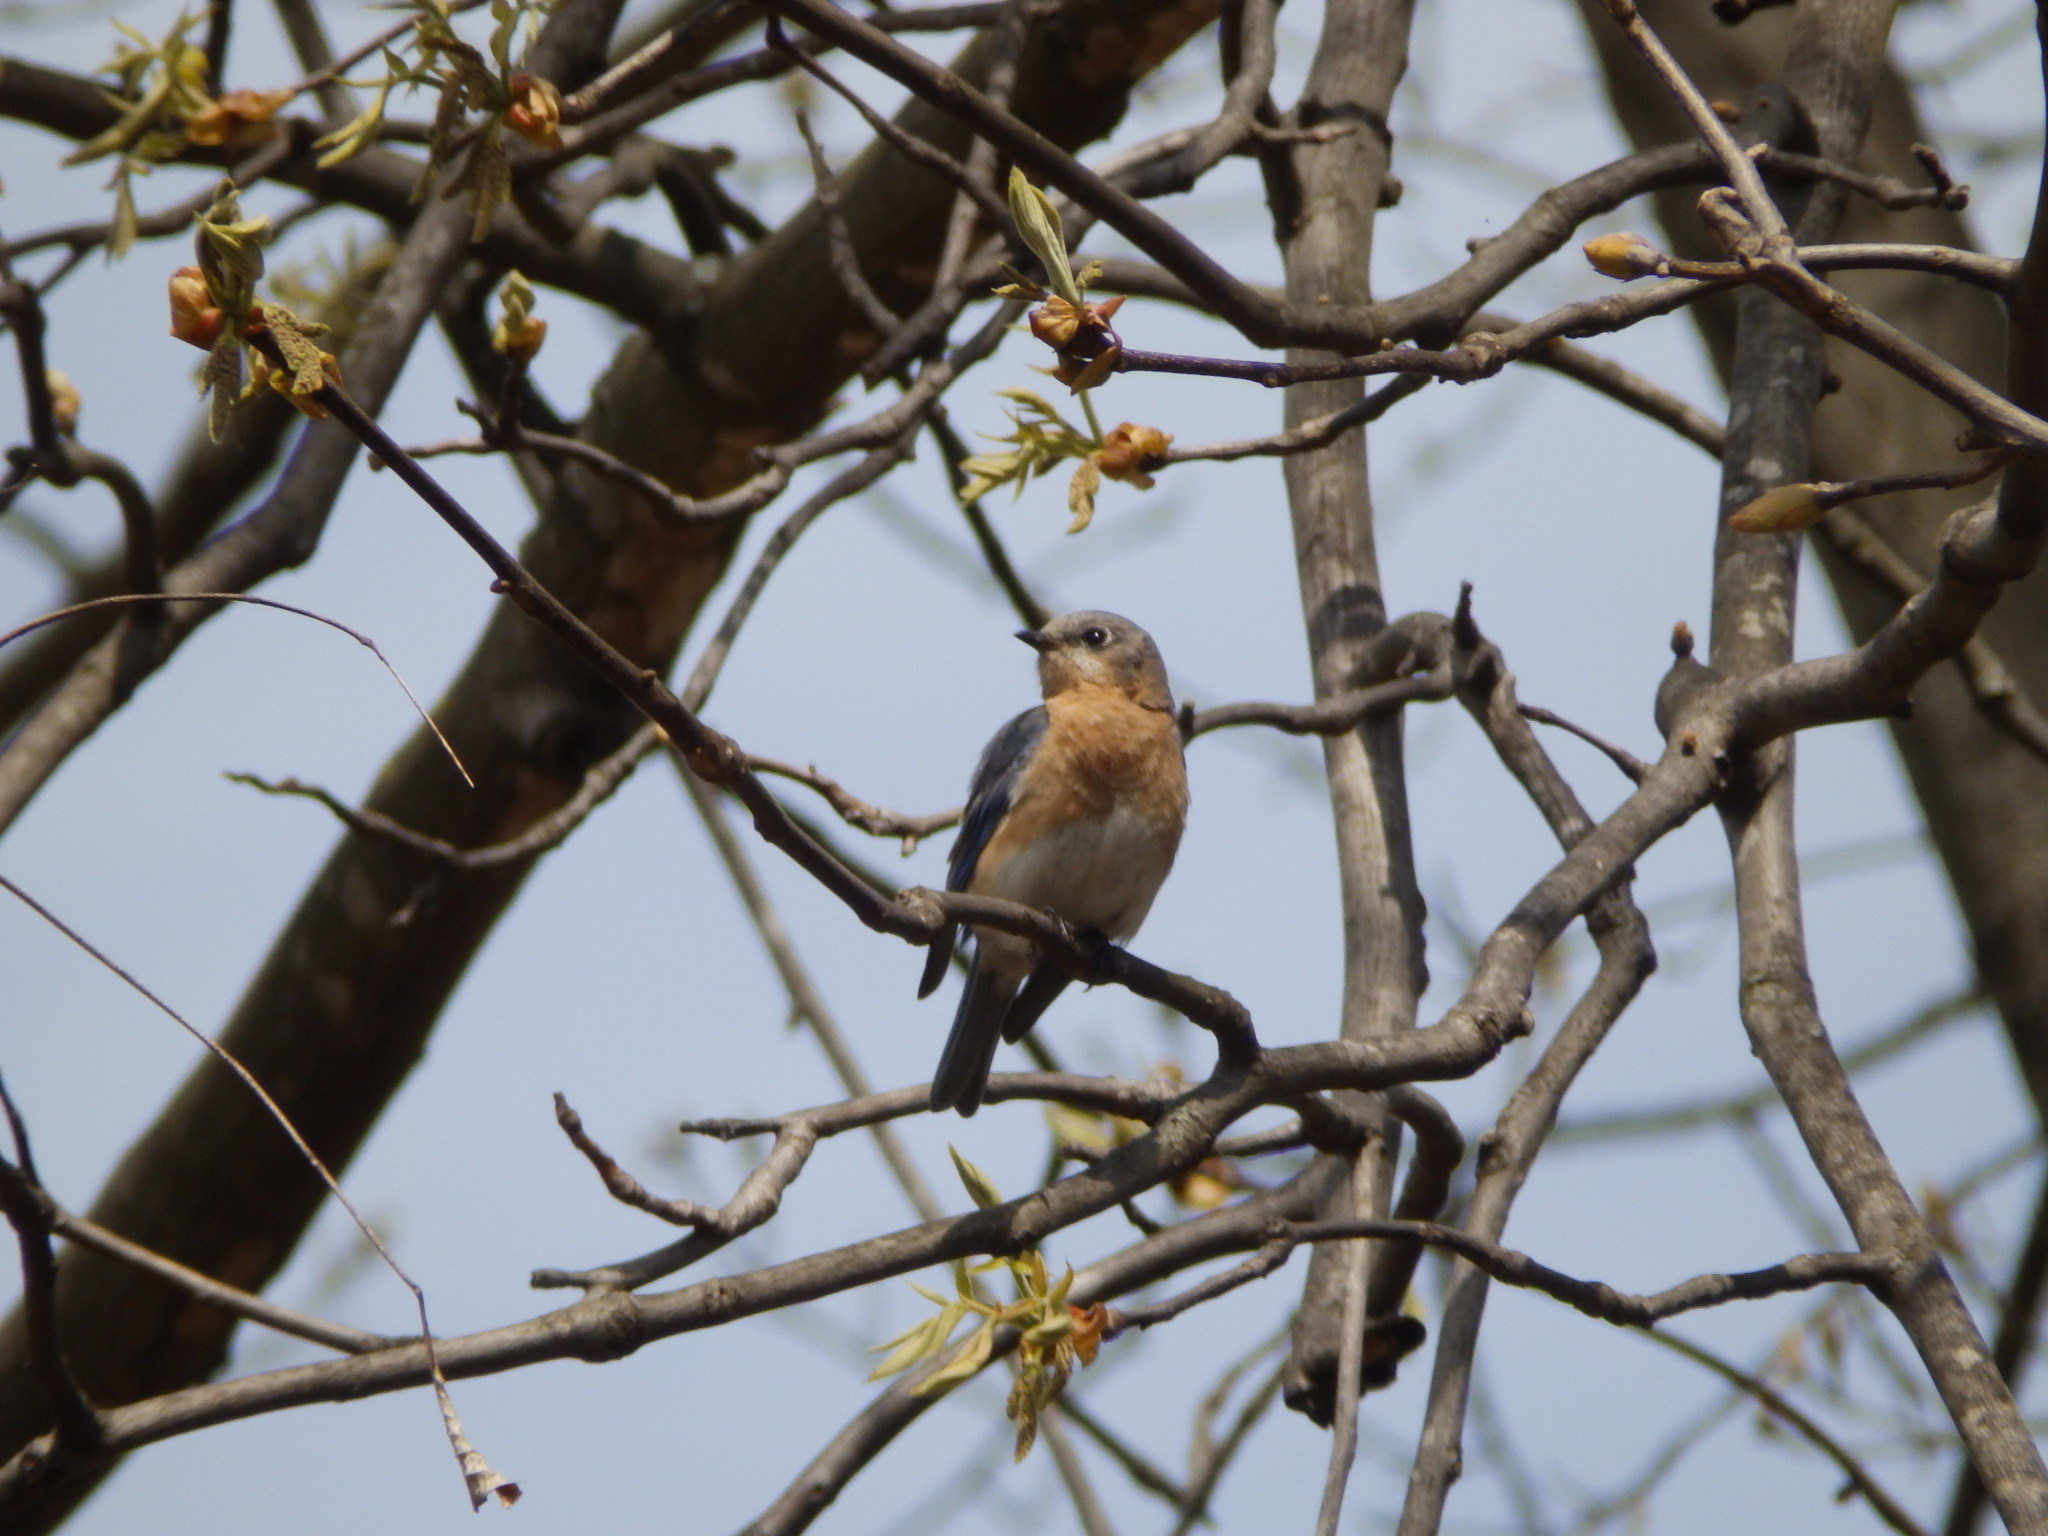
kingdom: Animalia
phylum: Chordata
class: Aves
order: Passeriformes
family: Turdidae
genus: Sialia
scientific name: Sialia sialis
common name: Eastern bluebird
